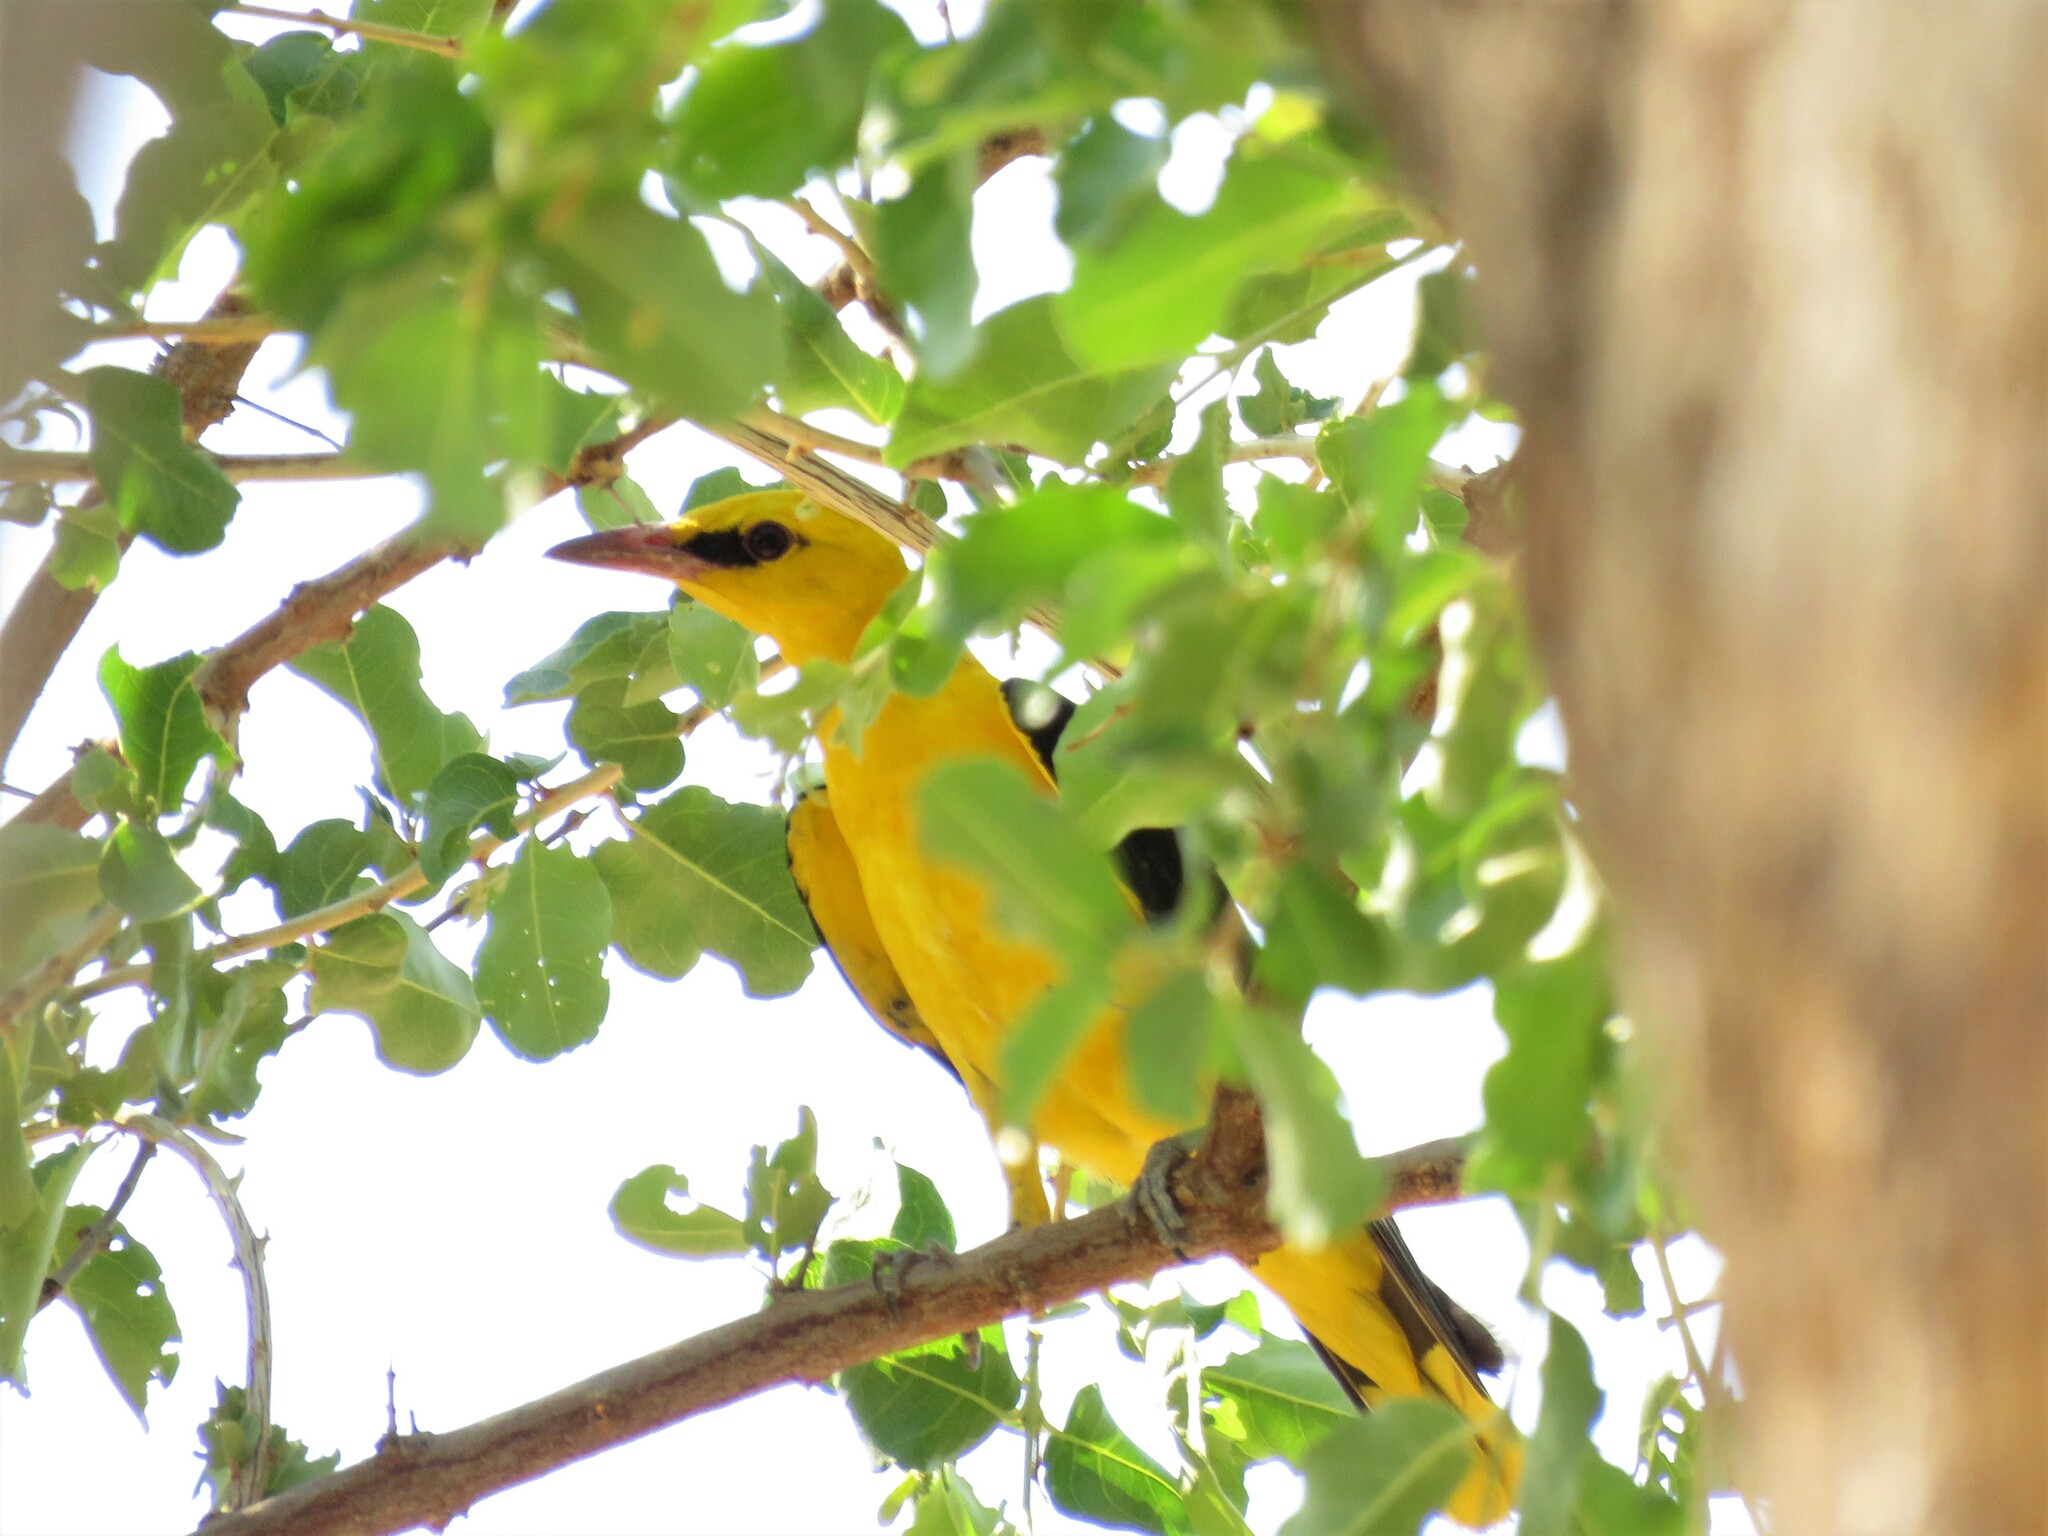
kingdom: Animalia
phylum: Chordata
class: Aves
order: Passeriformes
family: Oriolidae
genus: Oriolus
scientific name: Oriolus oriolus
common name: Eurasian golden oriole
